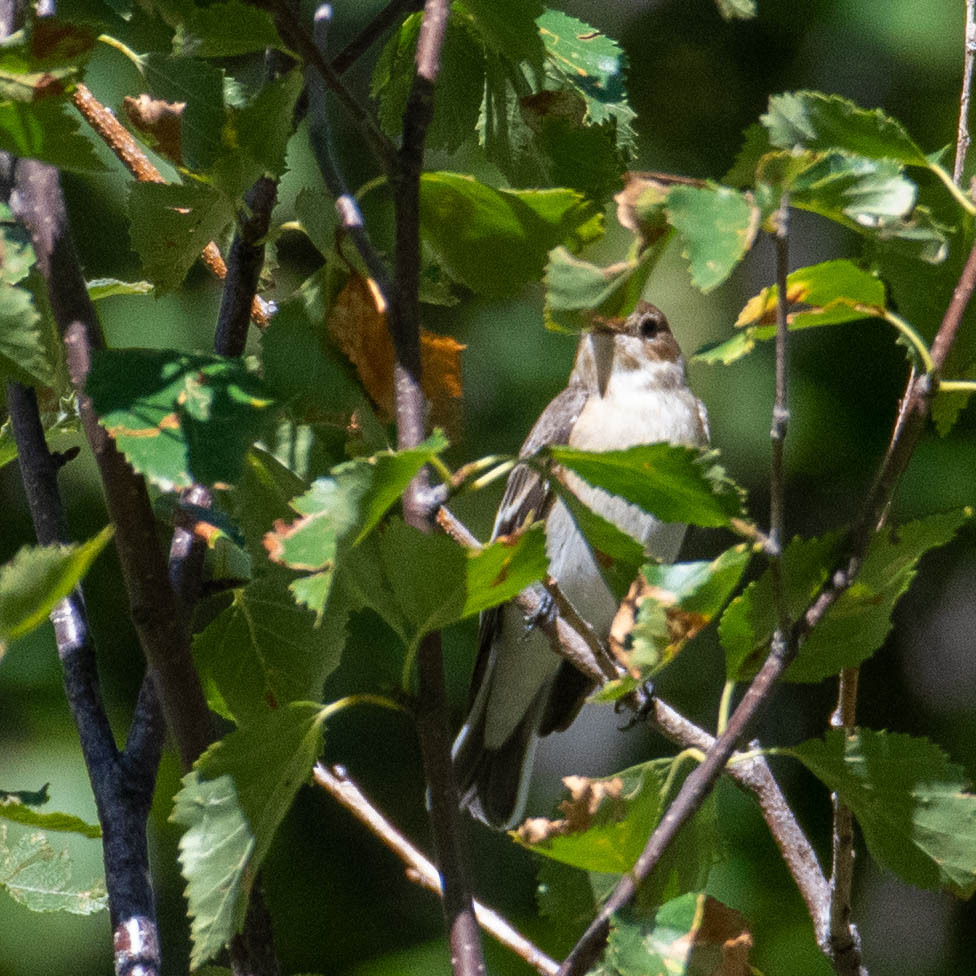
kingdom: Animalia
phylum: Chordata
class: Aves
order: Passeriformes
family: Muscicapidae
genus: Ficedula
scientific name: Ficedula hypoleuca
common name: European pied flycatcher
